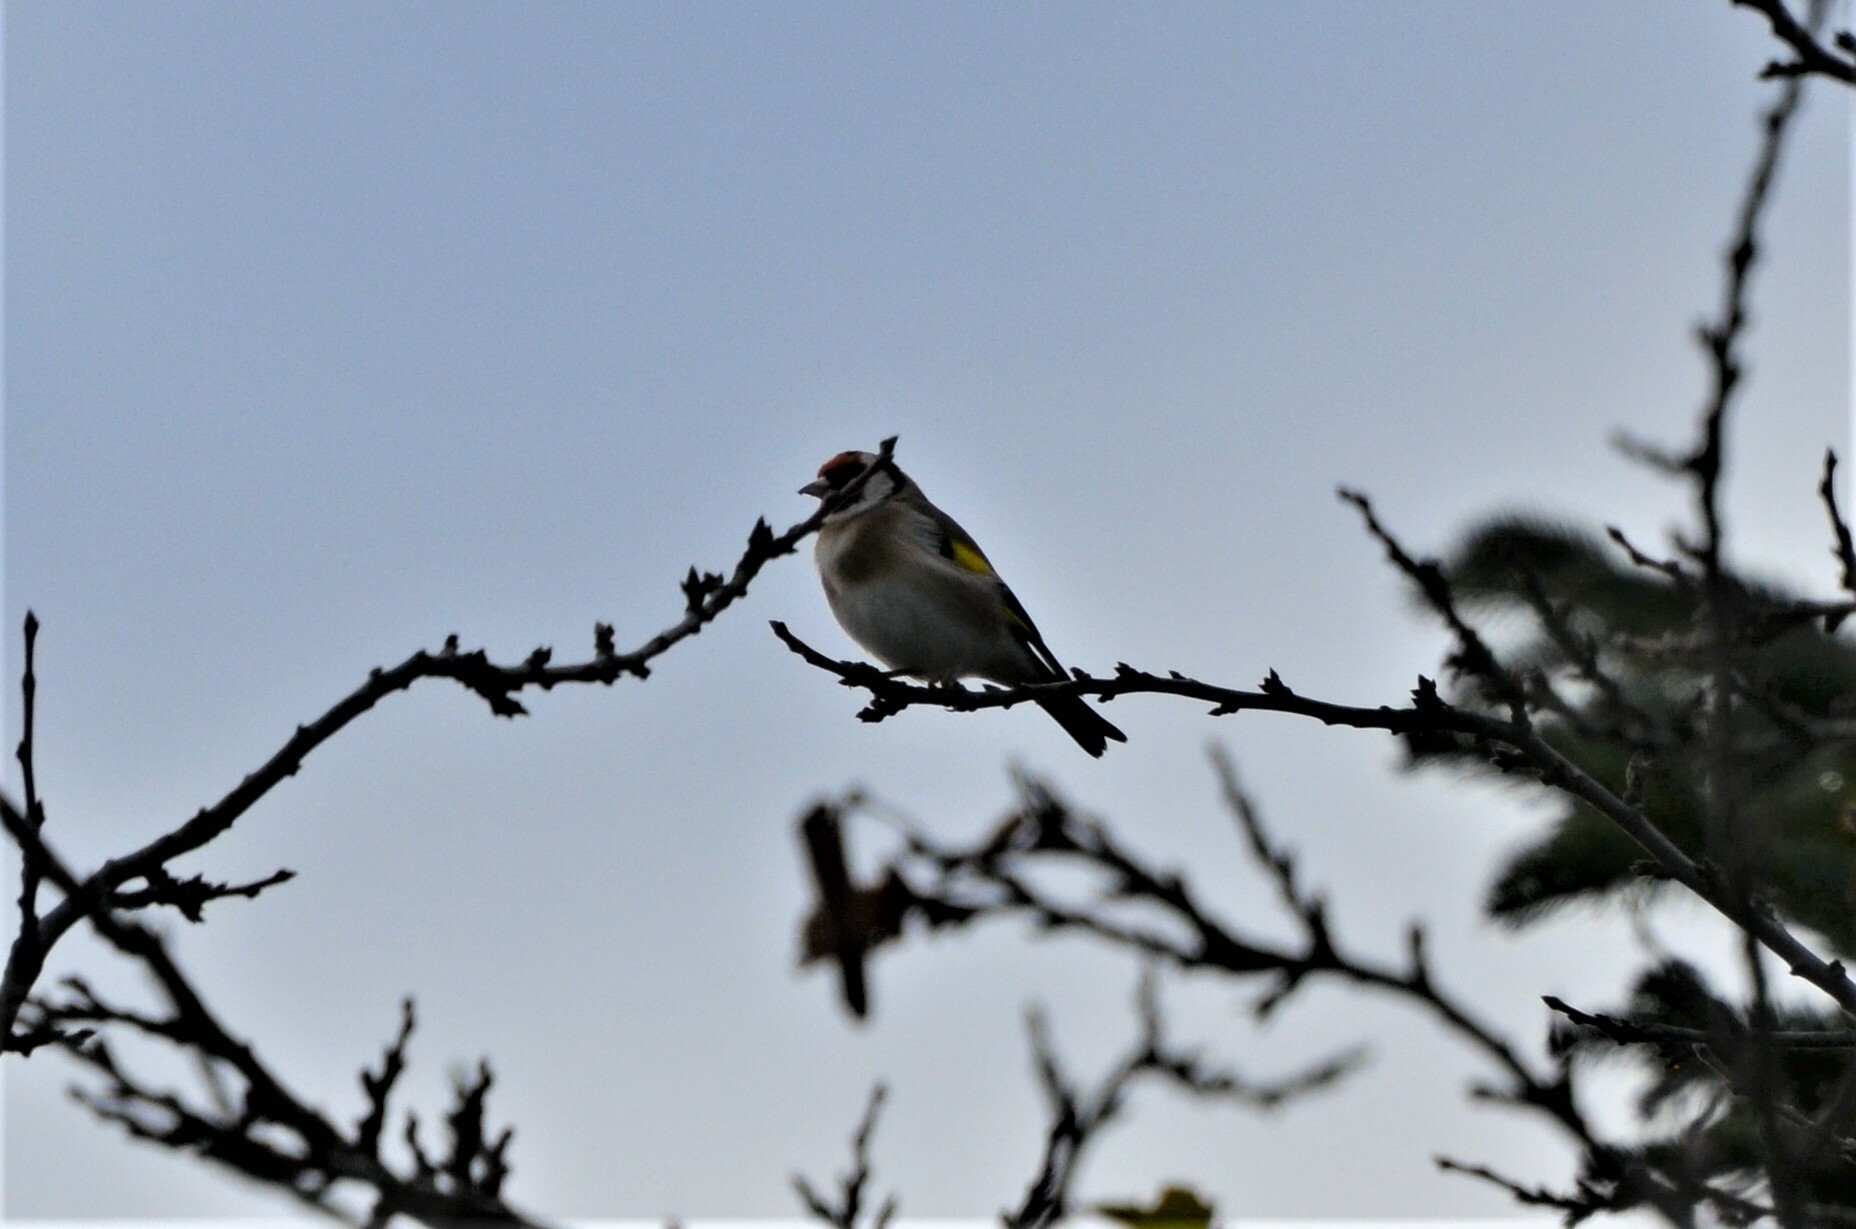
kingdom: Animalia
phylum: Chordata
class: Aves
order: Passeriformes
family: Fringillidae
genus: Carduelis
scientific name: Carduelis carduelis
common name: European goldfinch
